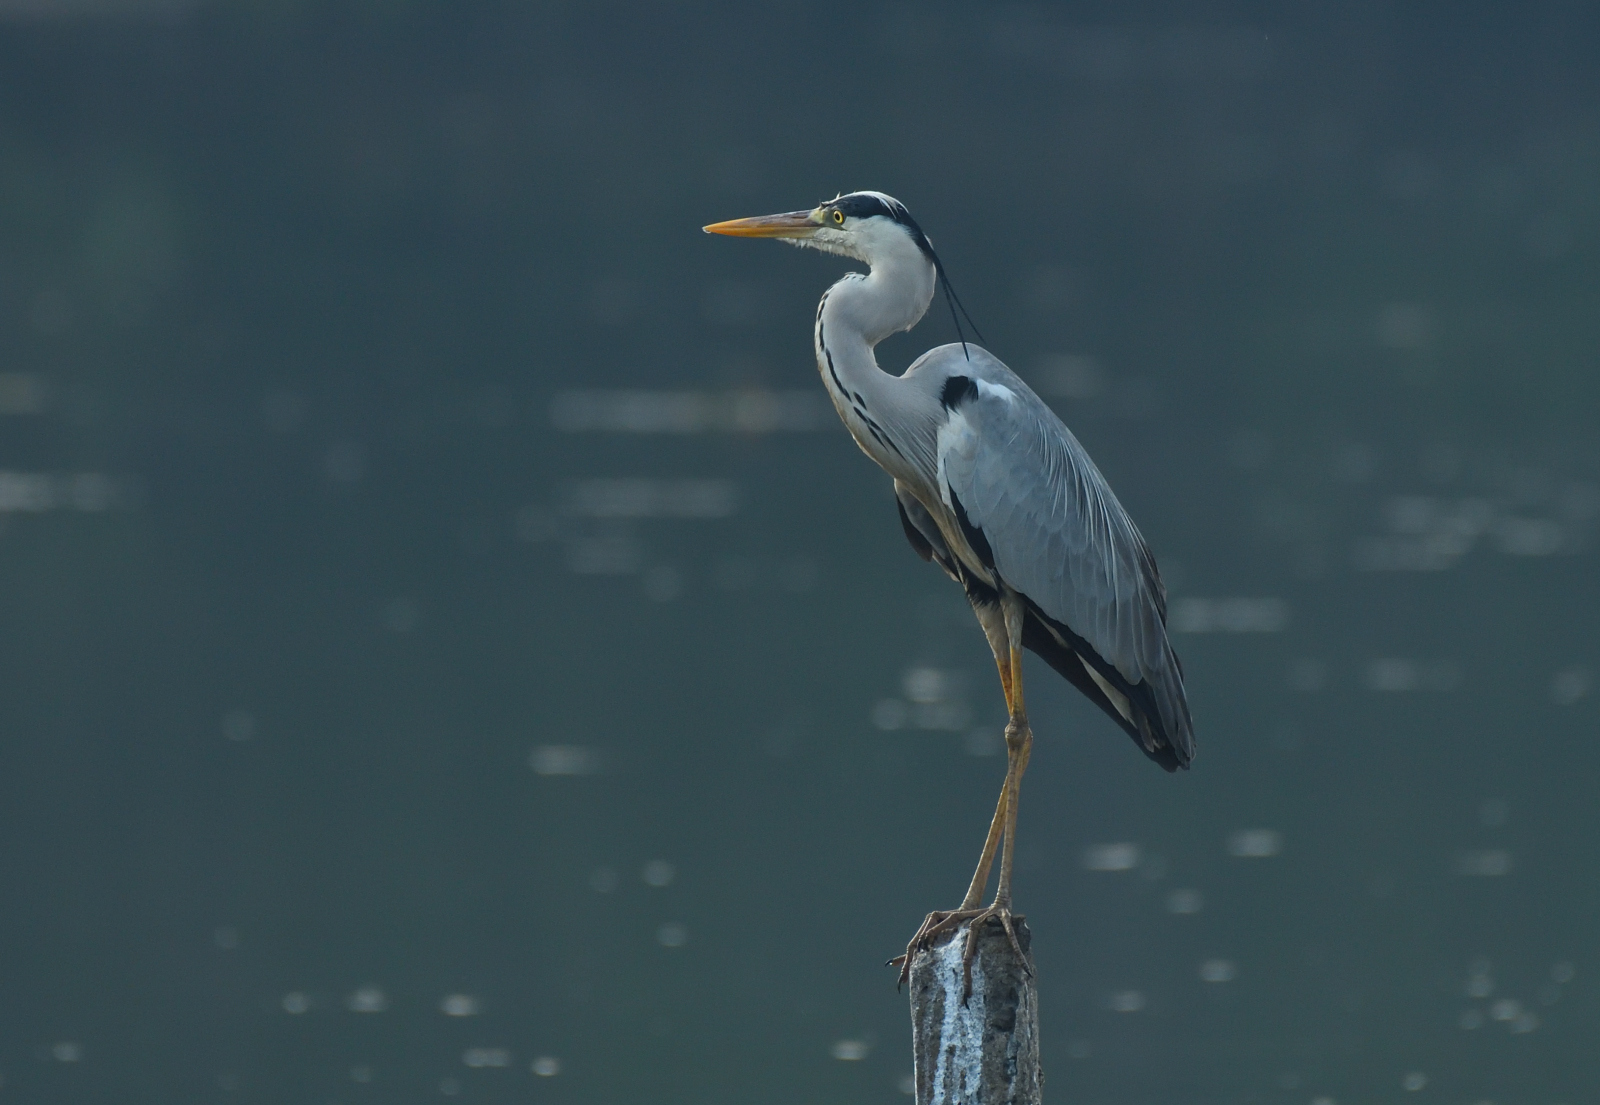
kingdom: Animalia
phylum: Chordata
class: Aves
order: Pelecaniformes
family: Ardeidae
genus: Ardea
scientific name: Ardea cinerea
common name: Grey heron
